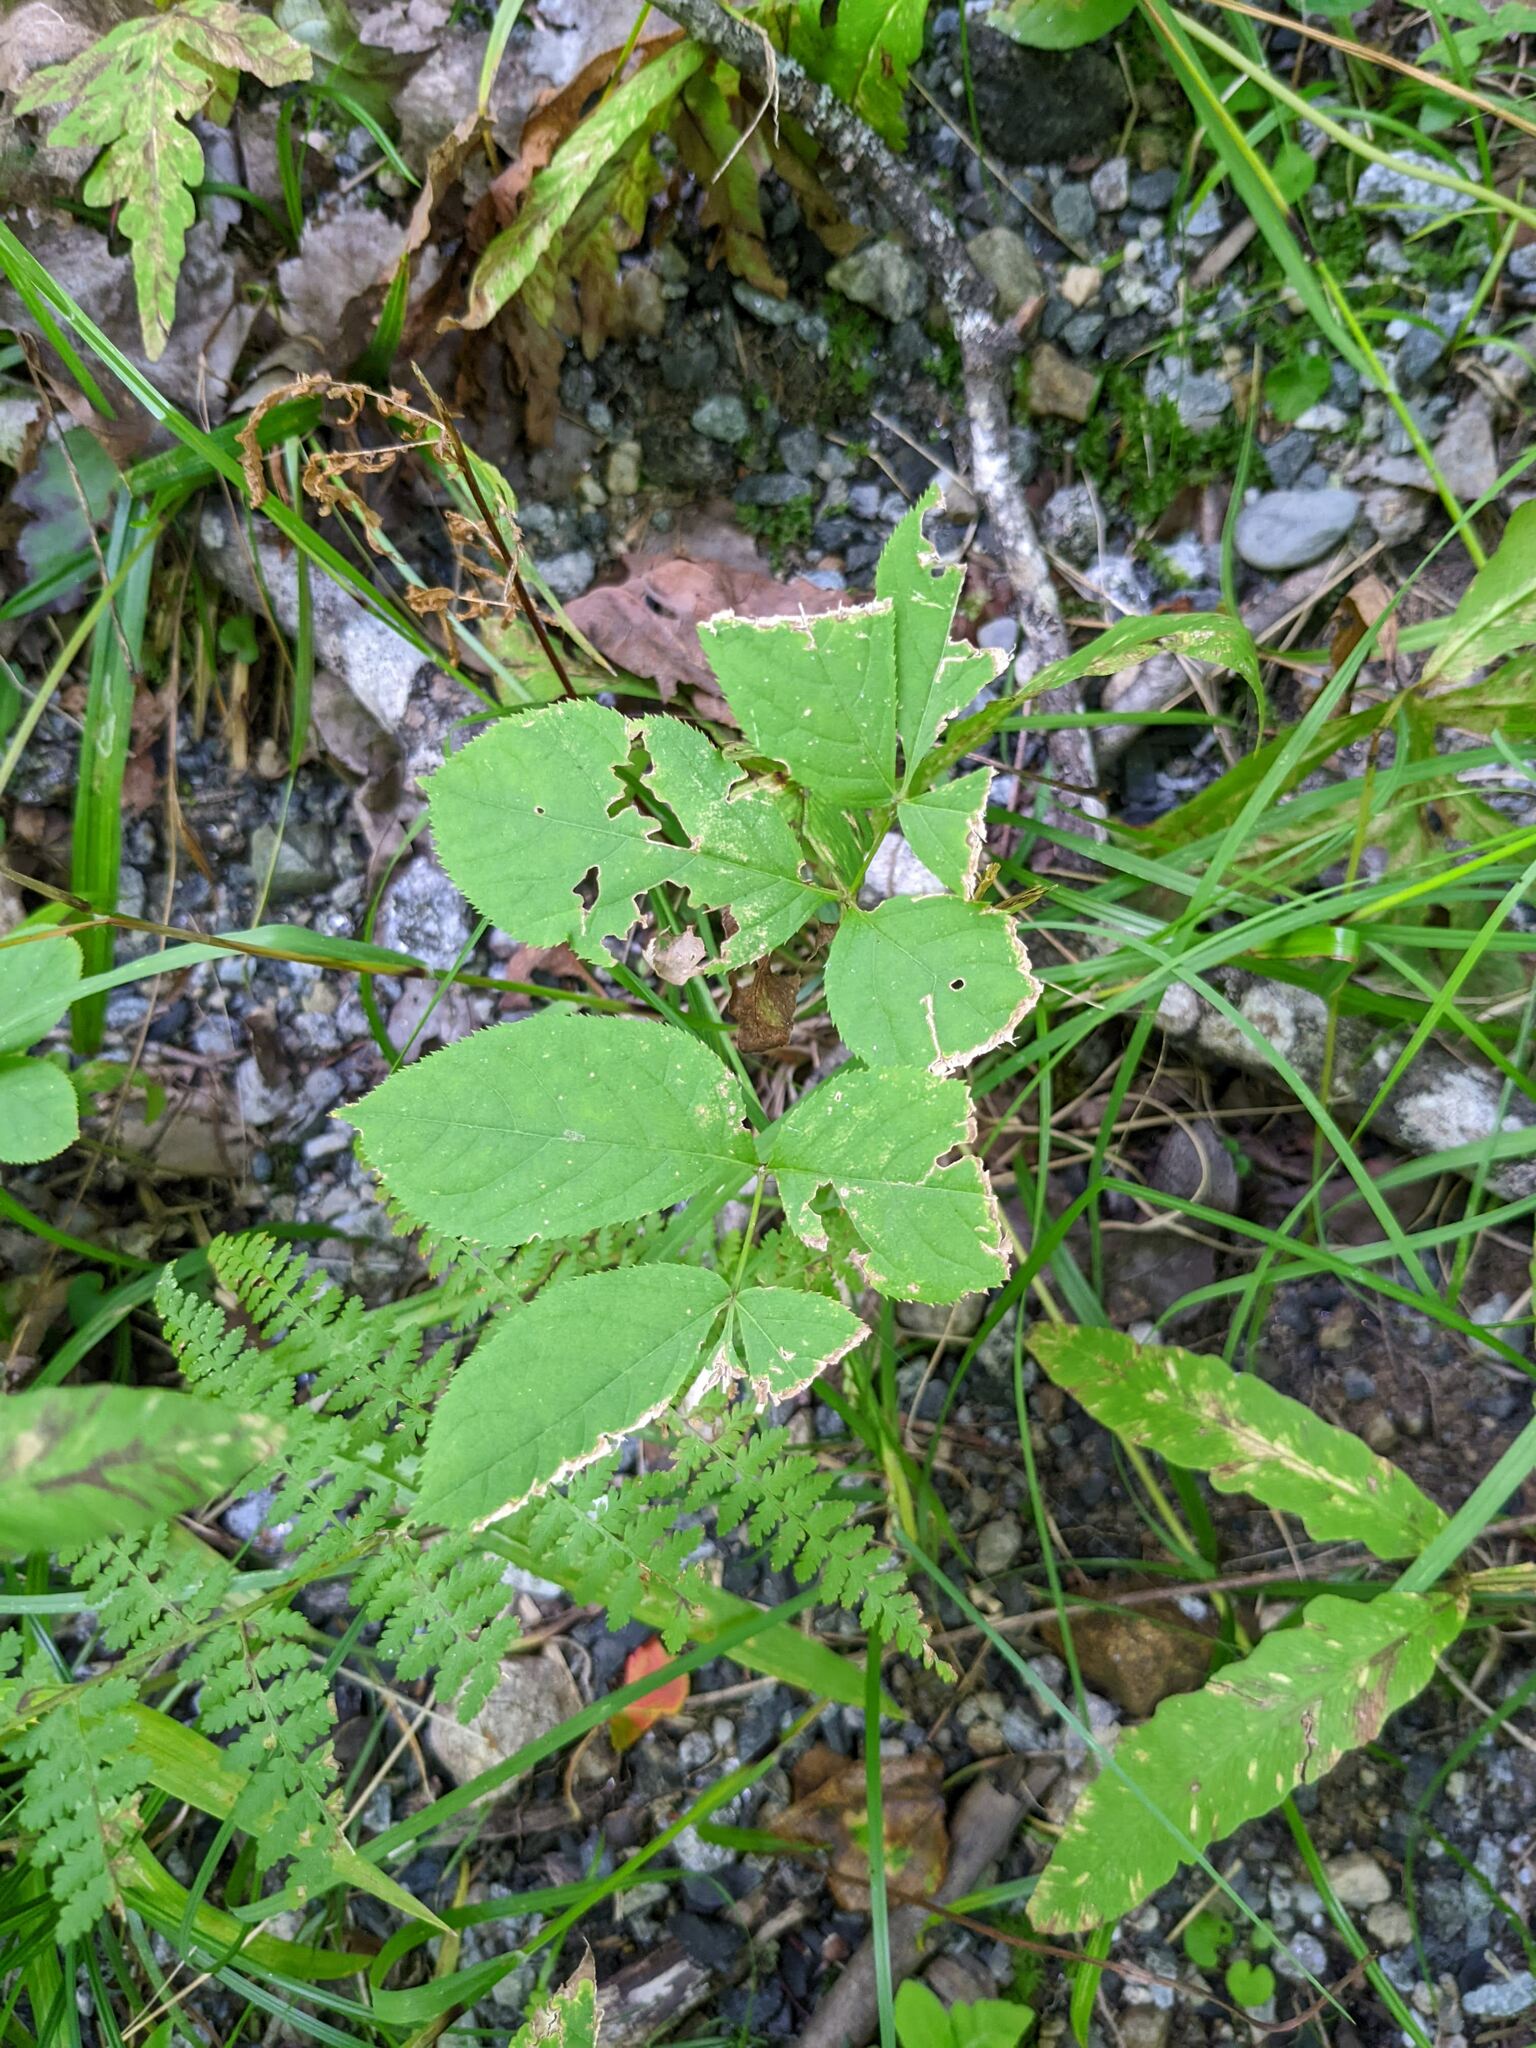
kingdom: Plantae
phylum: Tracheophyta
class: Magnoliopsida
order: Apiales
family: Araliaceae
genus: Aralia
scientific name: Aralia nudicaulis
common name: Wild sarsaparilla
